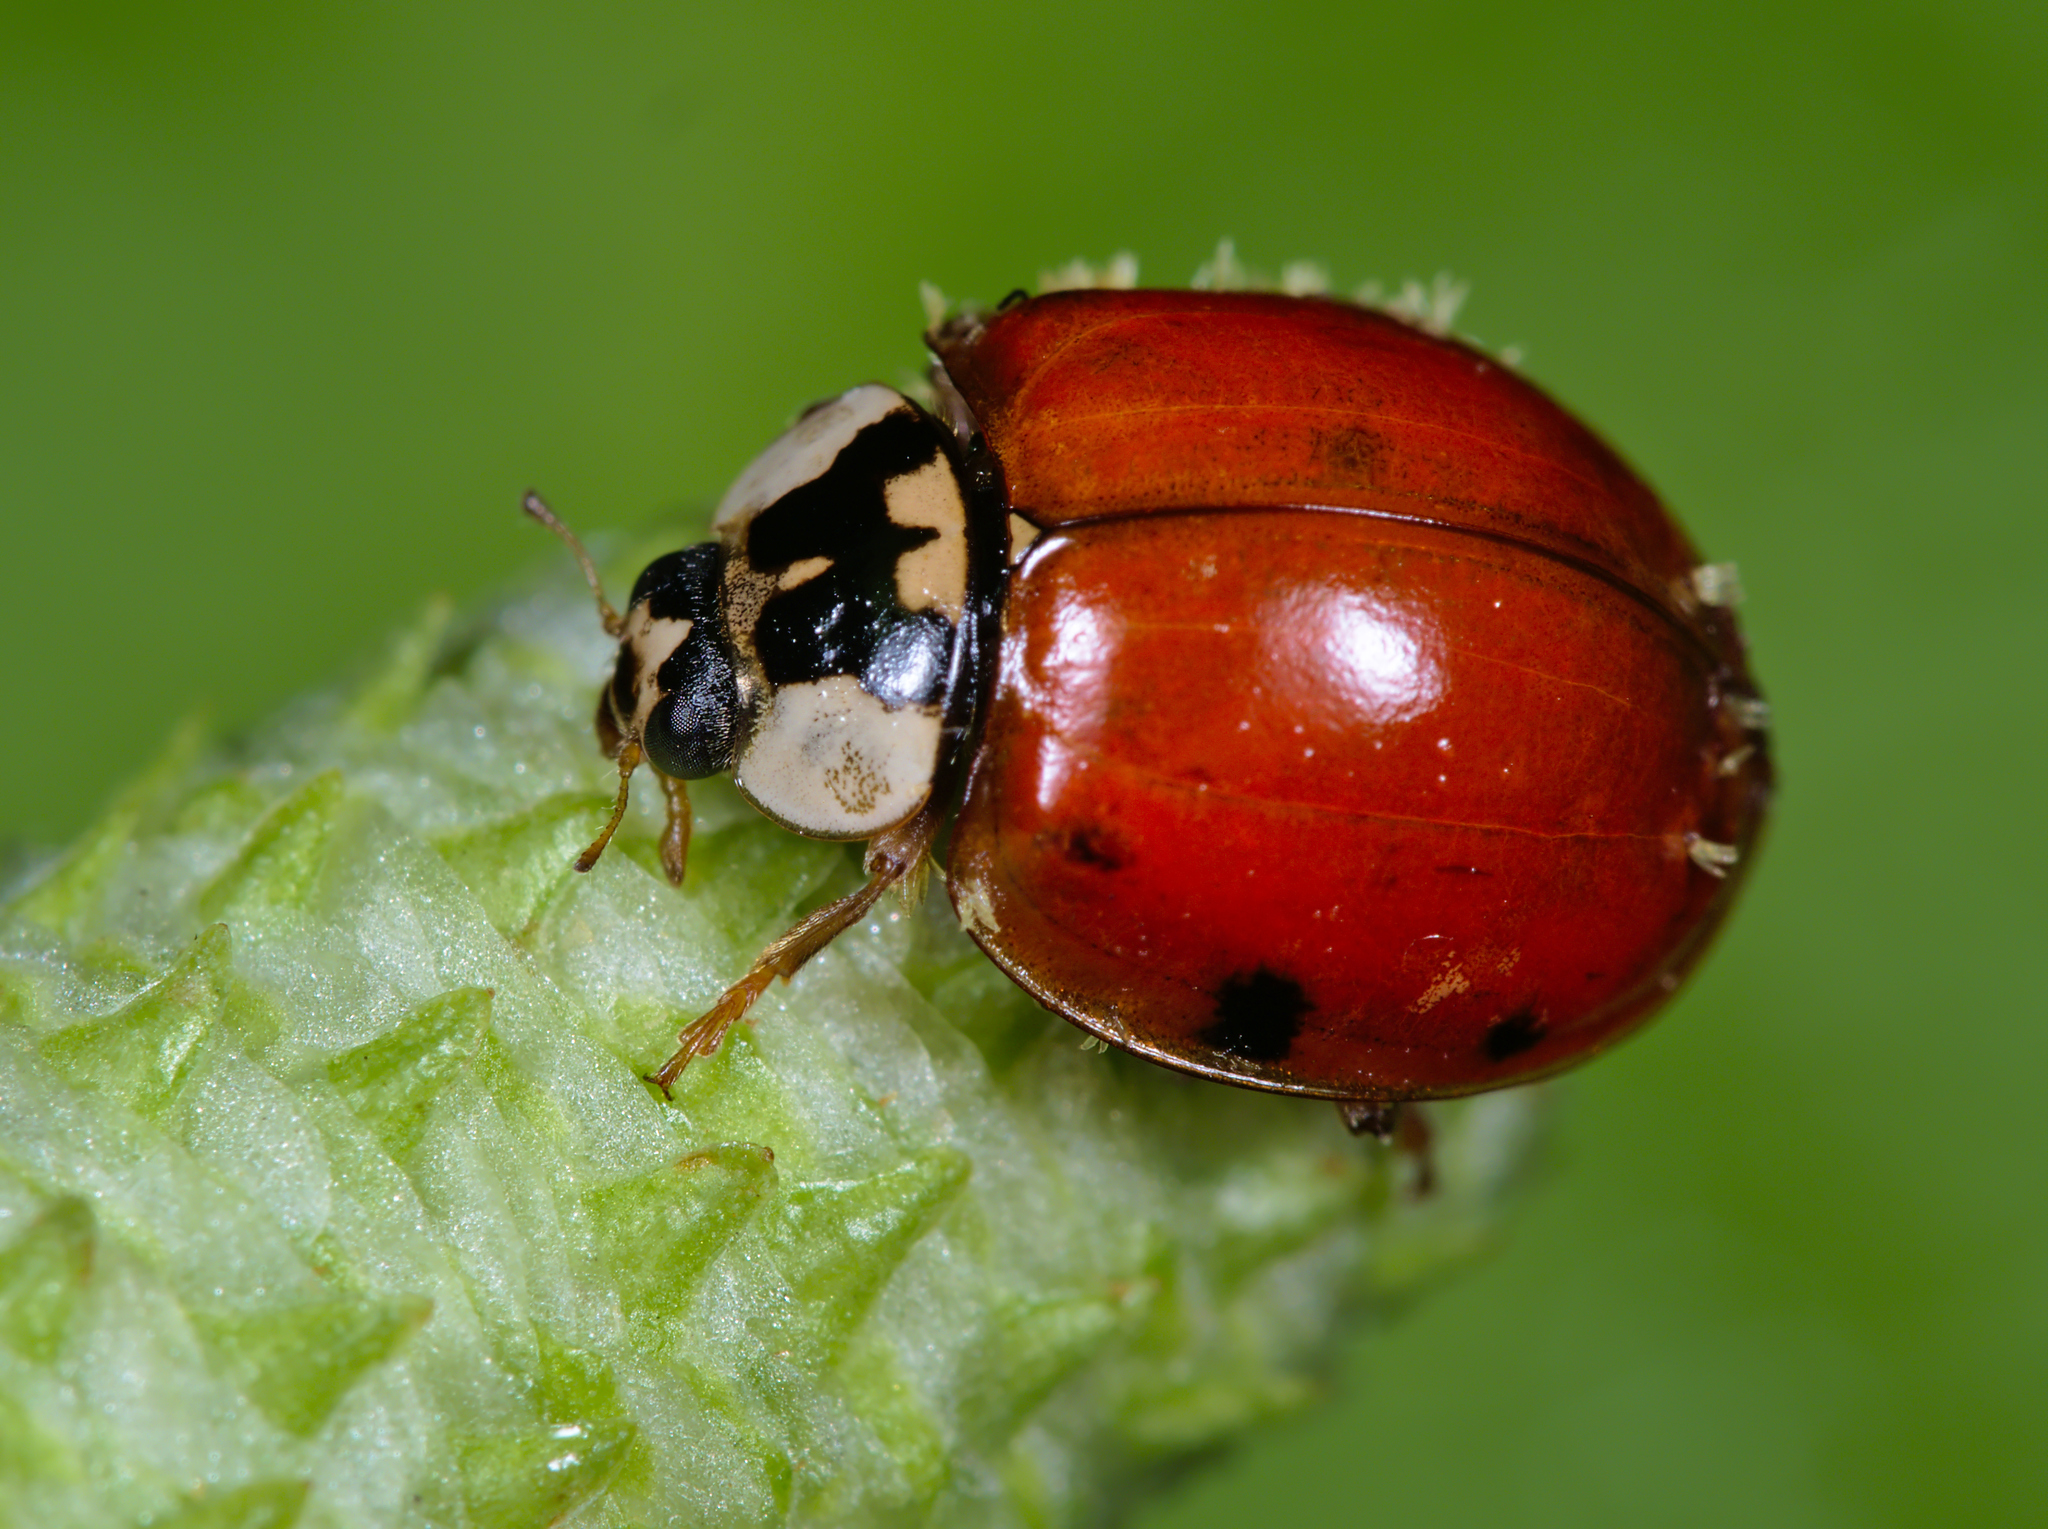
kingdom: Animalia
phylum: Arthropoda
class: Insecta
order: Coleoptera
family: Coccinellidae
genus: Harmonia
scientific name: Harmonia axyridis
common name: Harlequin ladybird
